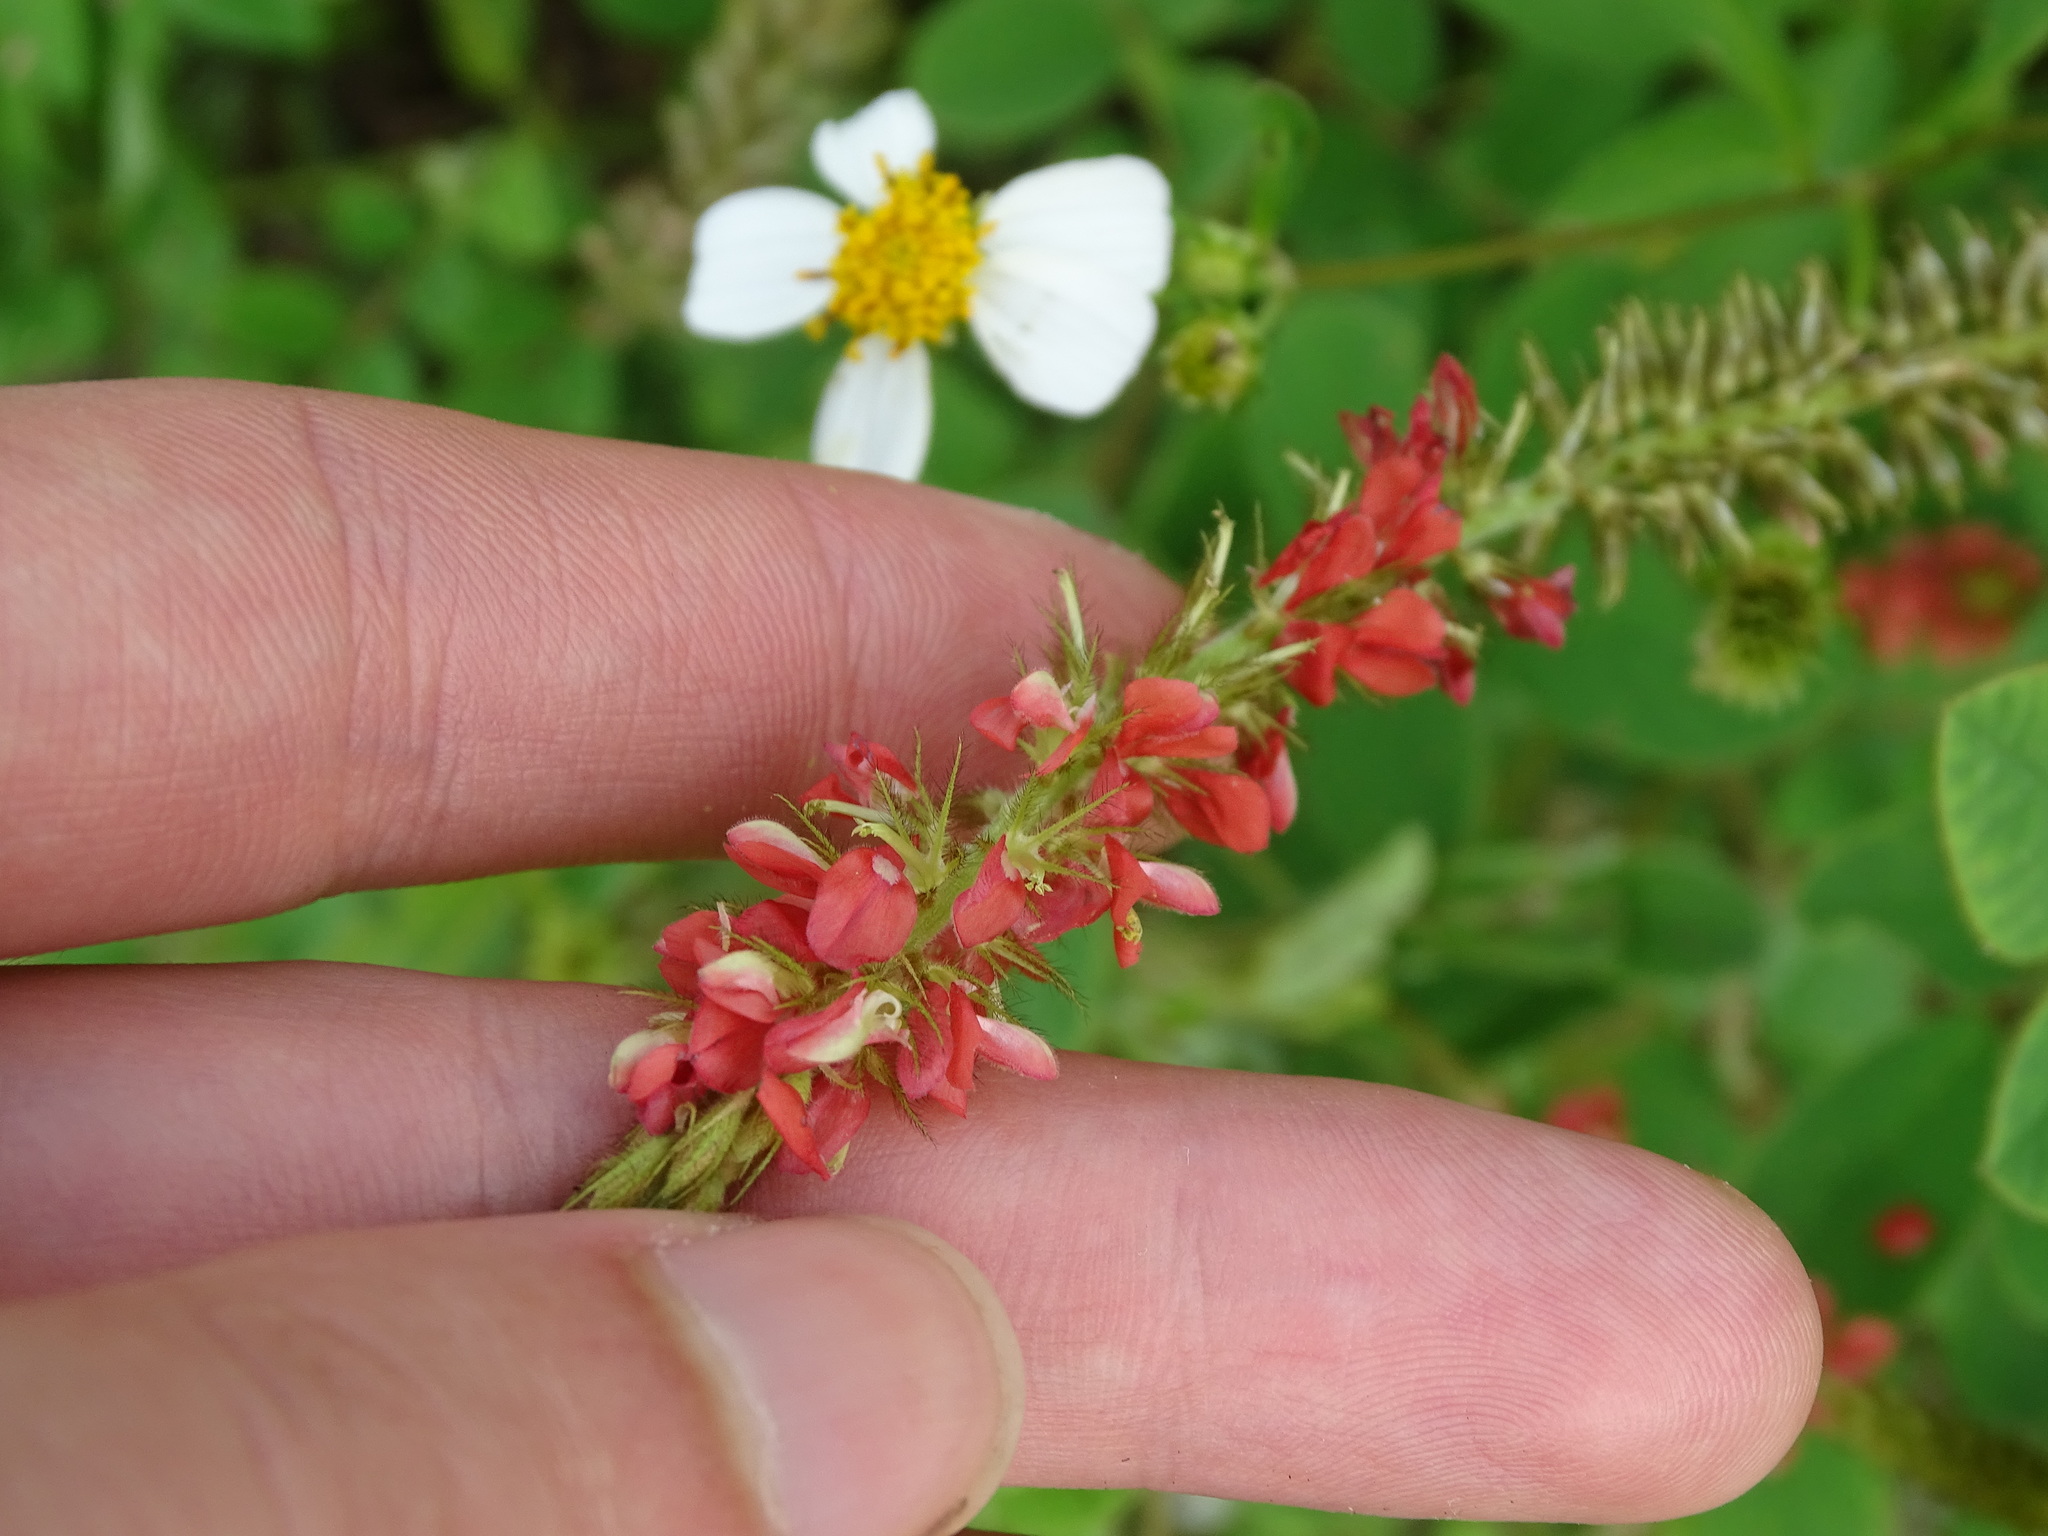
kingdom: Plantae
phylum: Tracheophyta
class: Magnoliopsida
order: Fabales
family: Fabaceae
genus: Indigofera
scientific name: Indigofera hirsuta
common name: Hairy indigo
